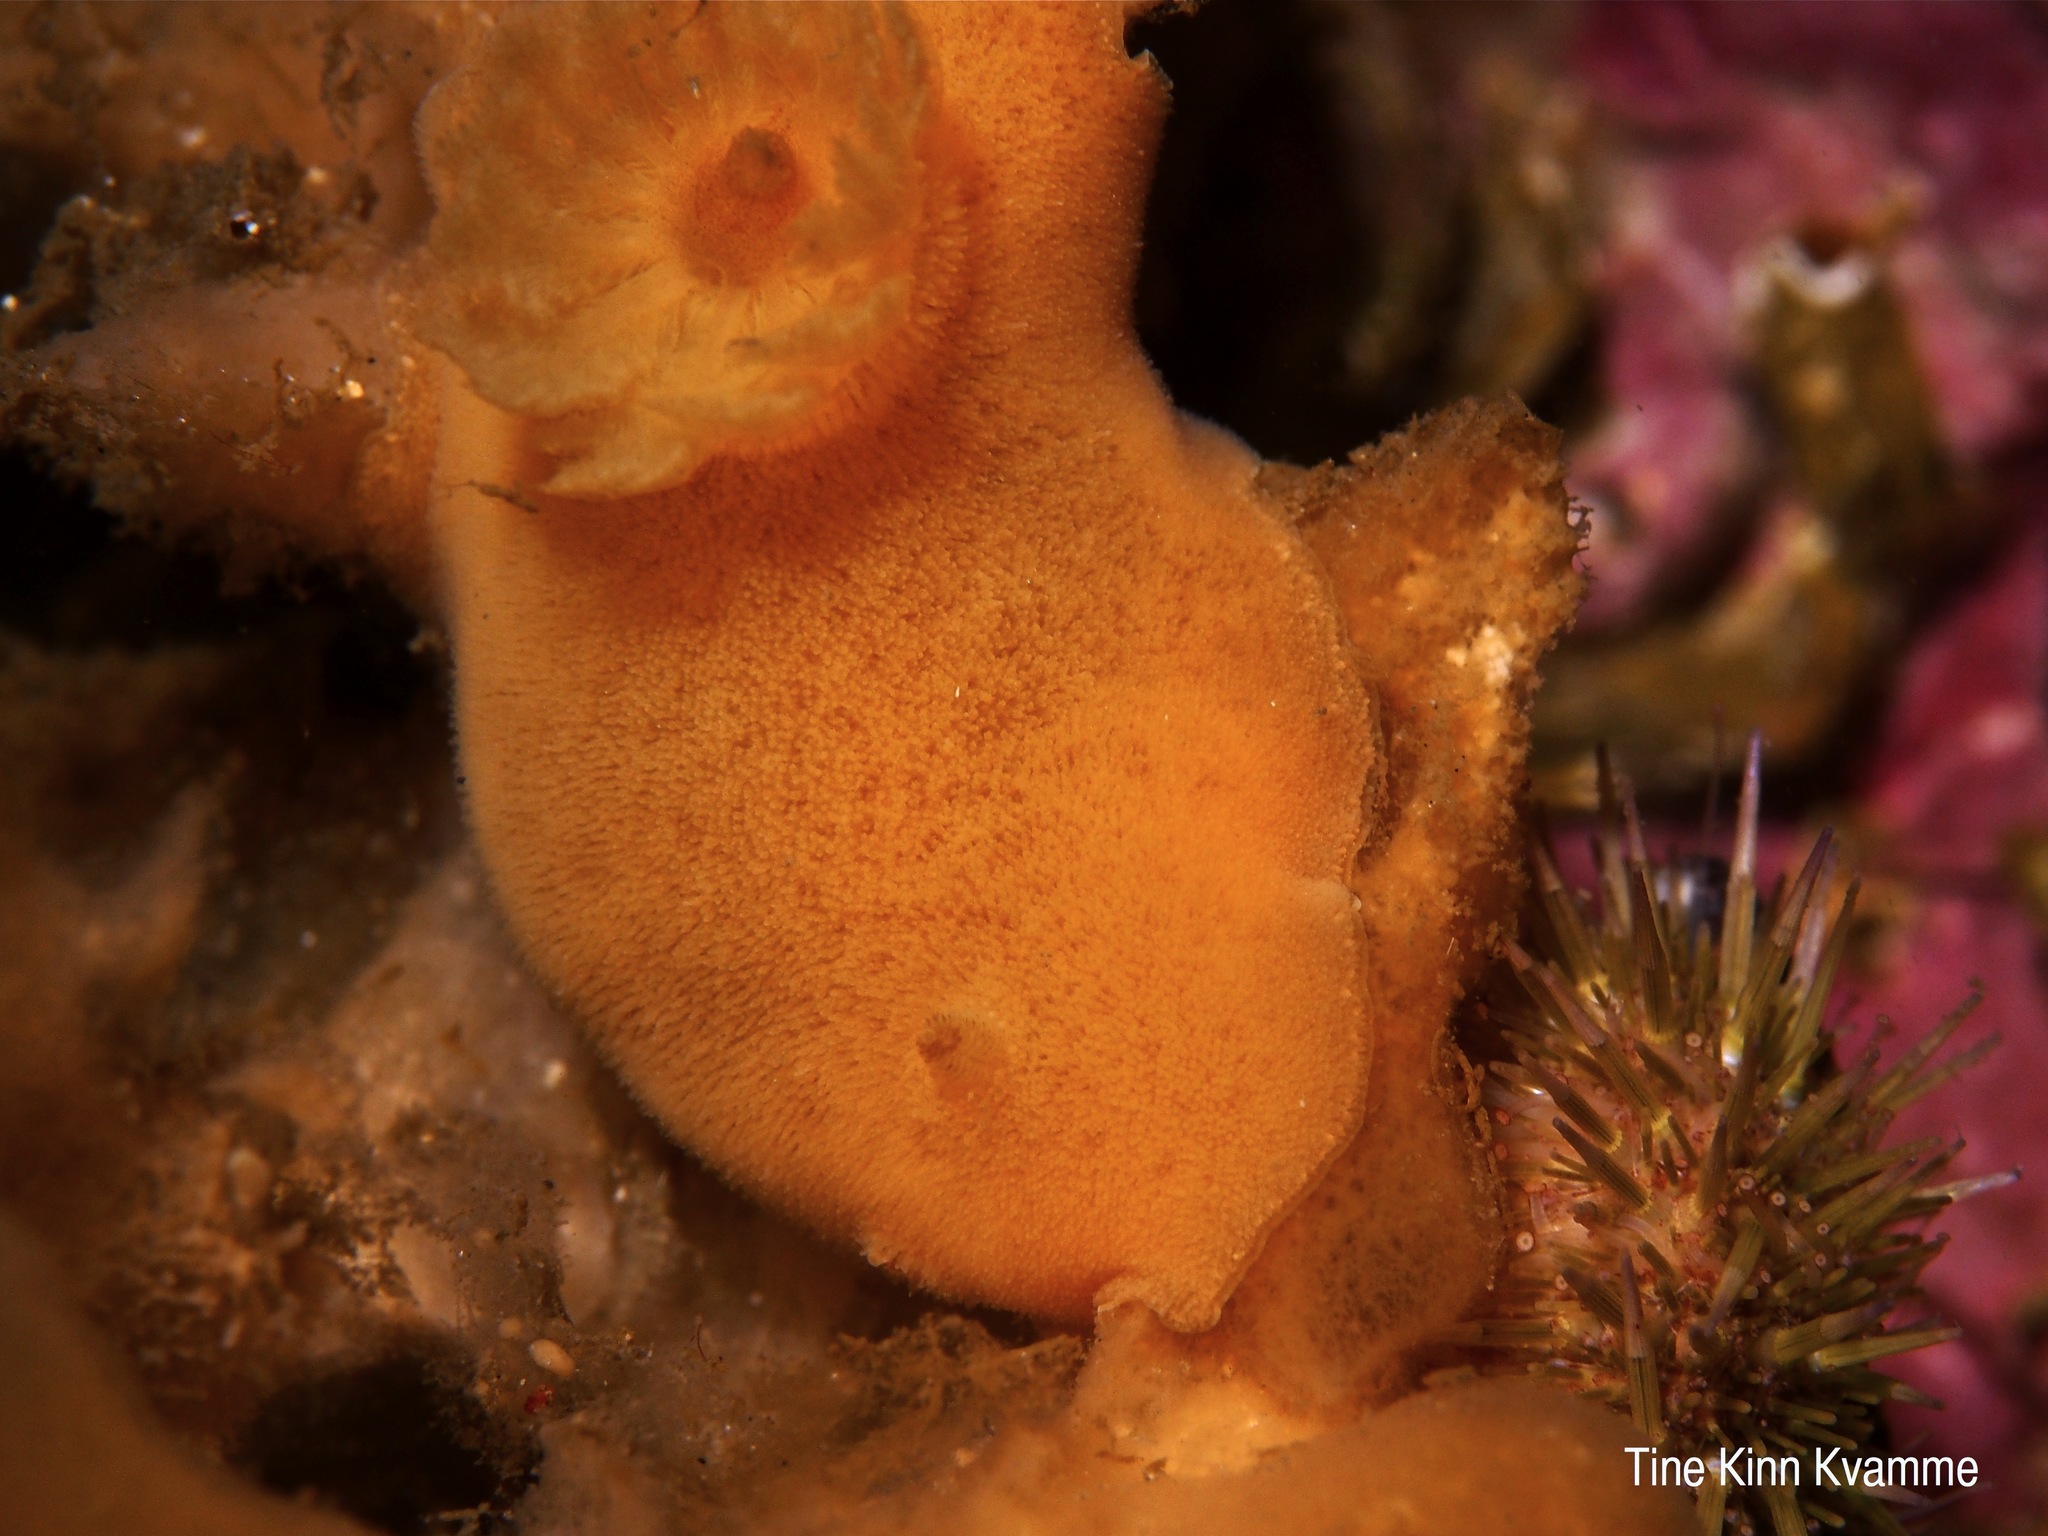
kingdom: Animalia
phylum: Mollusca
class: Gastropoda
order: Nudibranchia
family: Discodorididae
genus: Jorunna
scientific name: Jorunna tomentosa
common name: Grey sea slug
